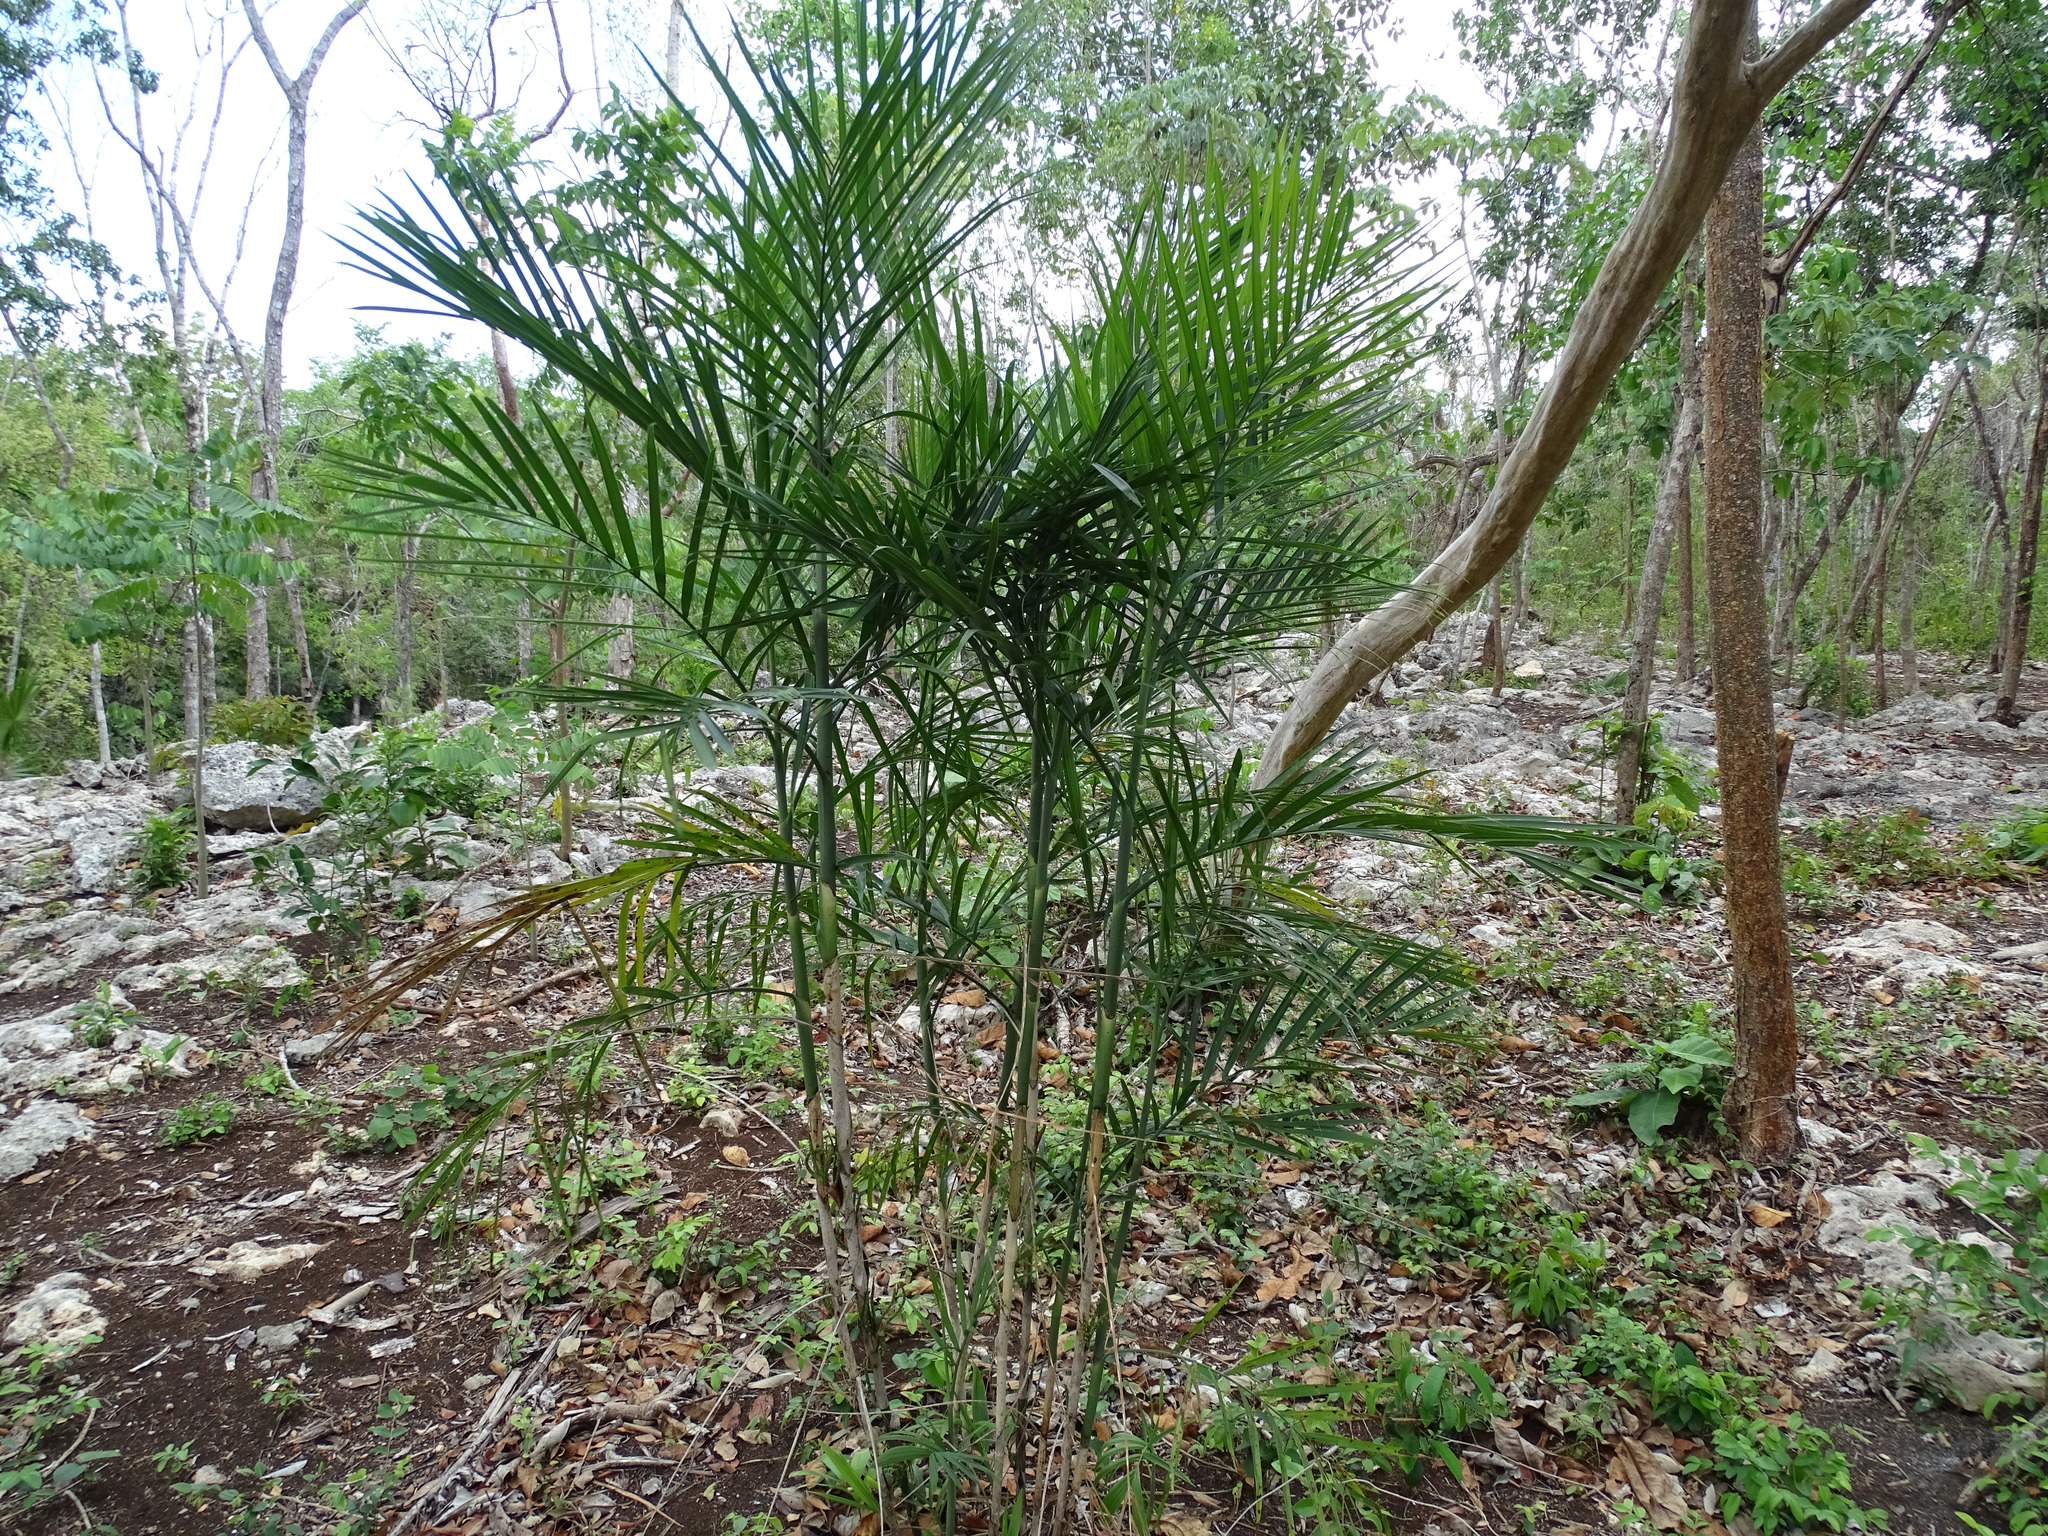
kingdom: Plantae
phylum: Tracheophyta
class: Liliopsida
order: Arecales
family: Arecaceae
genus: Chamaedorea
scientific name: Chamaedorea seifrizii
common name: Seifriz's chamaedorea
